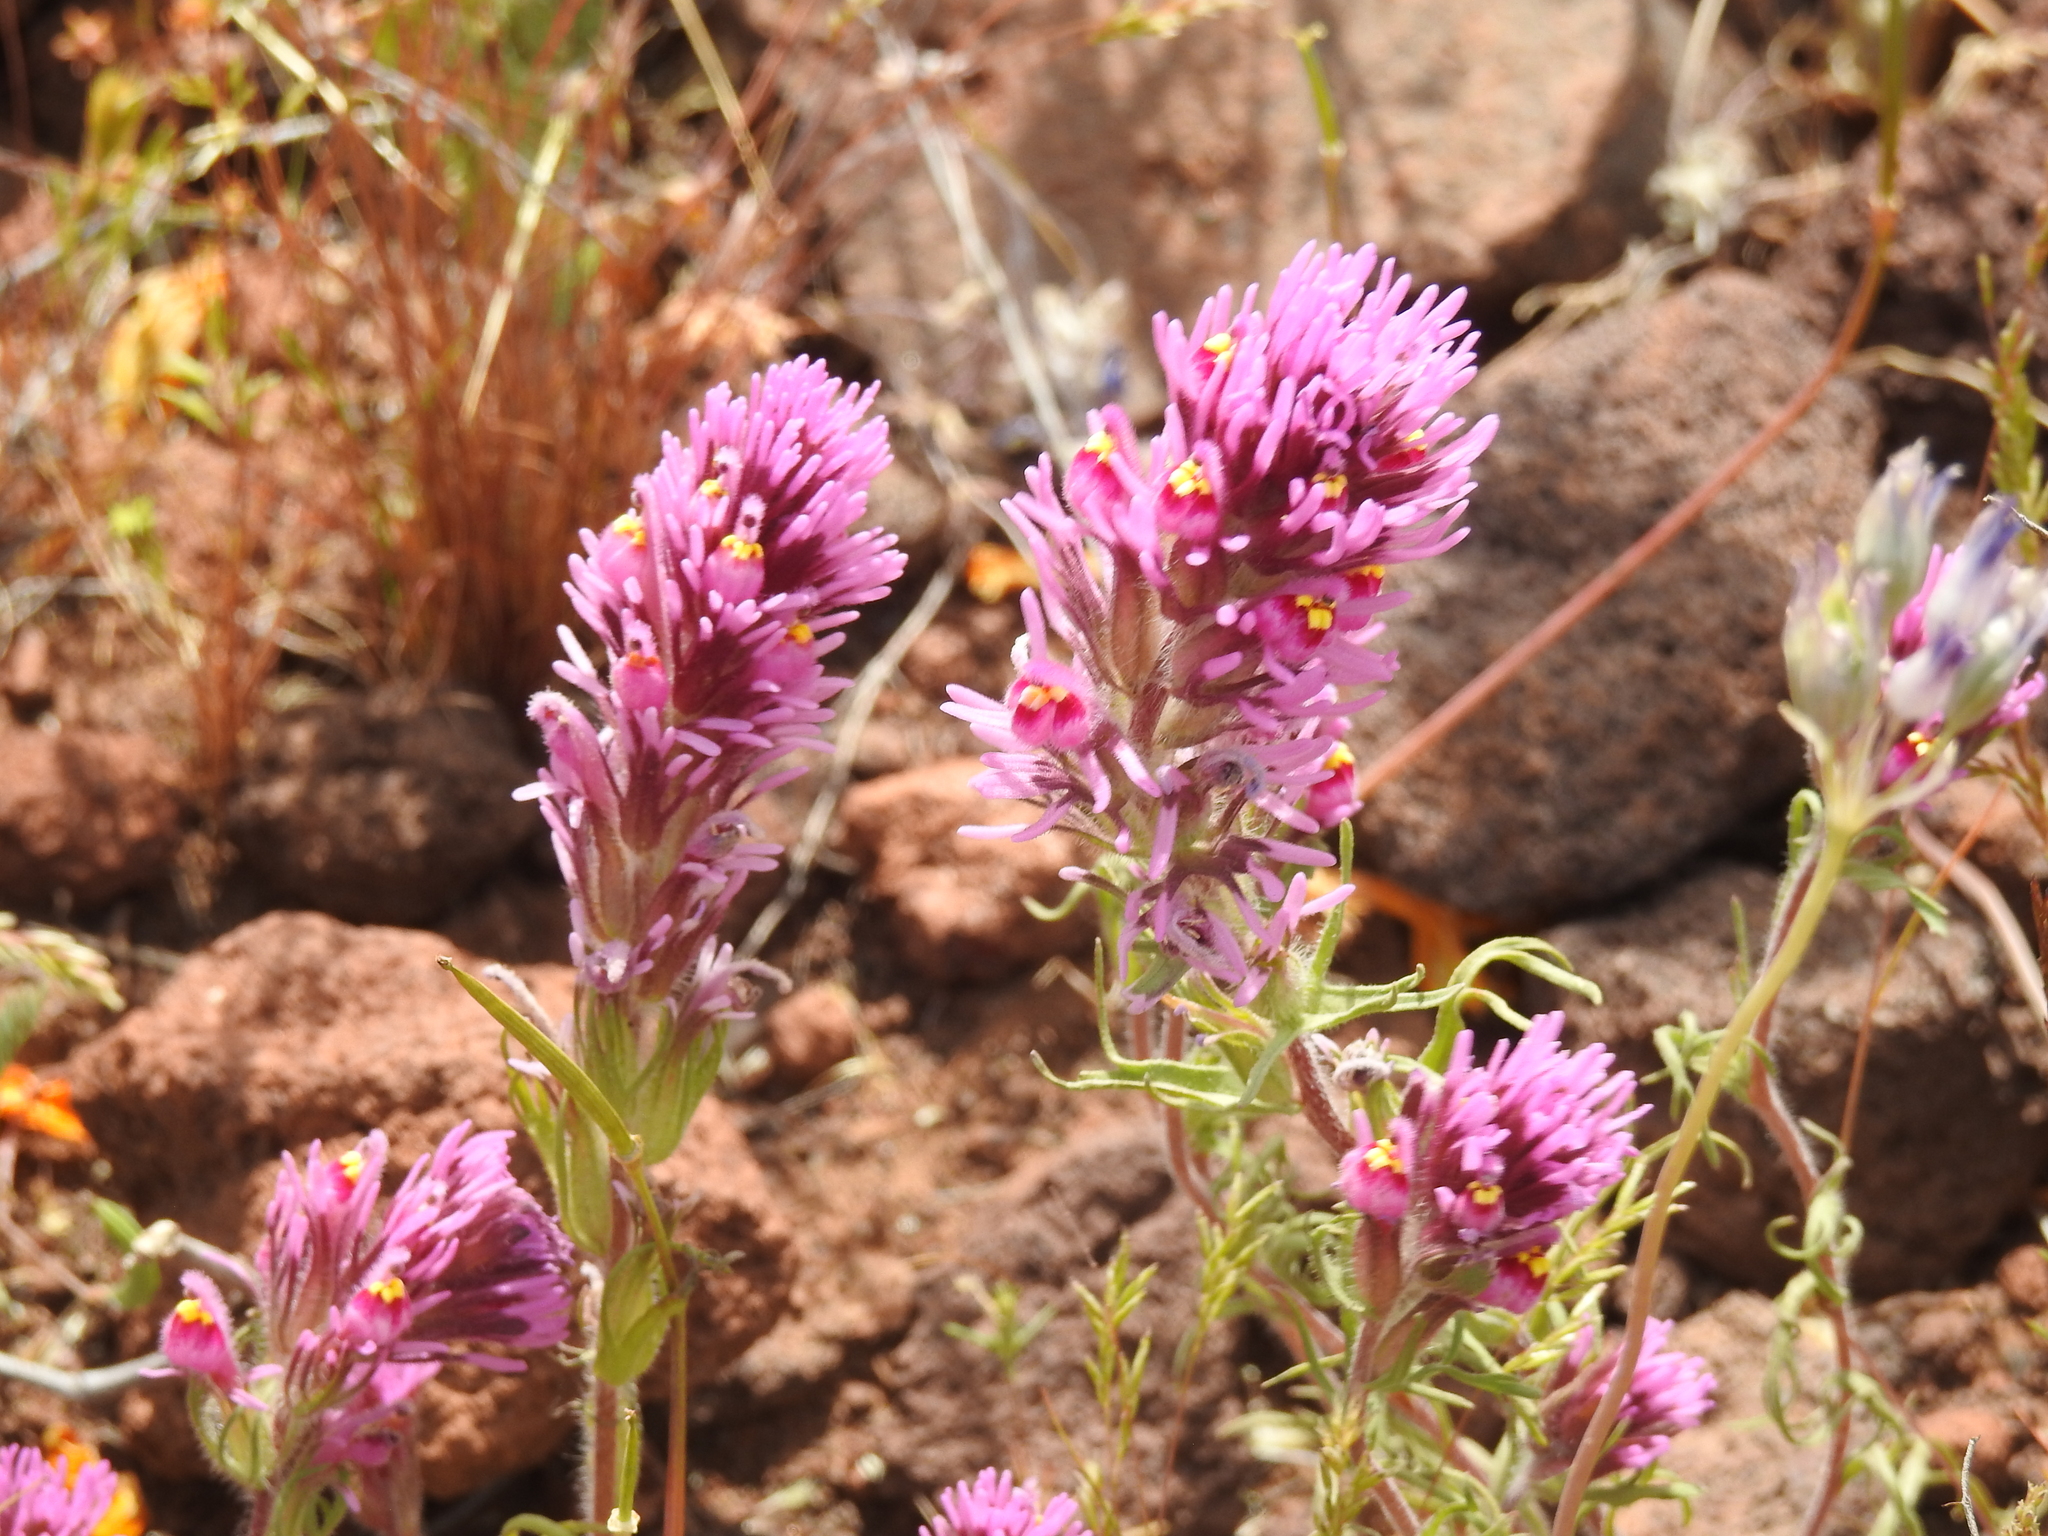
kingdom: Plantae
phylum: Tracheophyta
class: Magnoliopsida
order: Lamiales
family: Orobanchaceae
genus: Castilleja
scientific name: Castilleja exserta
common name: Purple owl-clover
